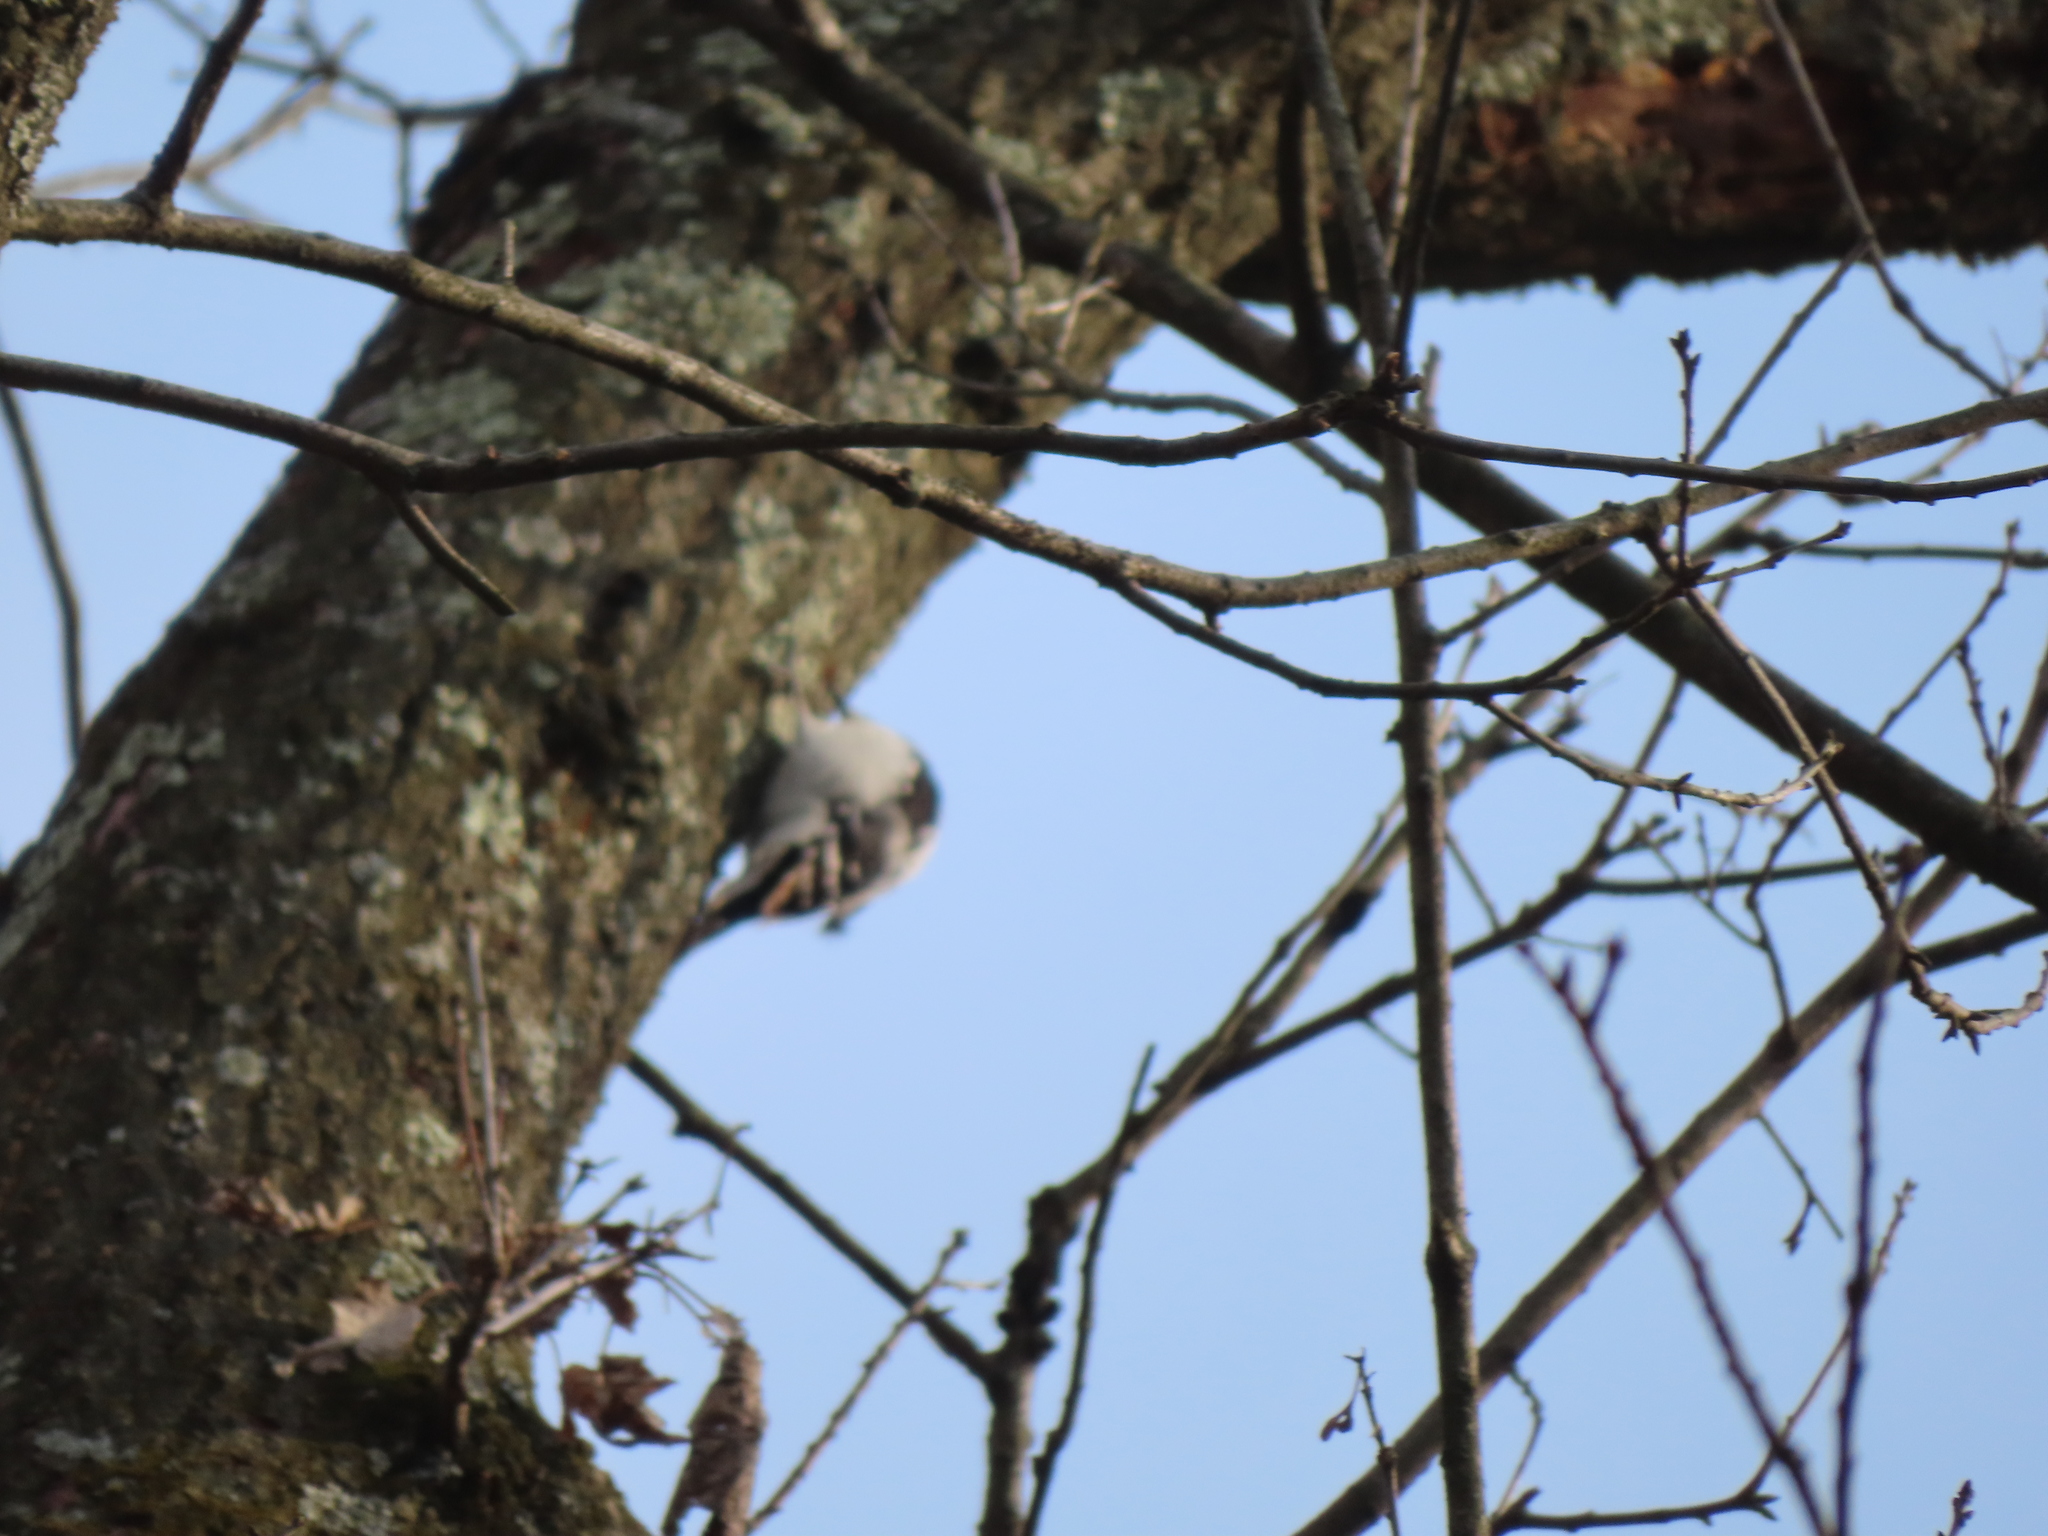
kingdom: Animalia
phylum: Chordata
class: Aves
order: Piciformes
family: Picidae
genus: Leuconotopicus
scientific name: Leuconotopicus villosus
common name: Hairy woodpecker
